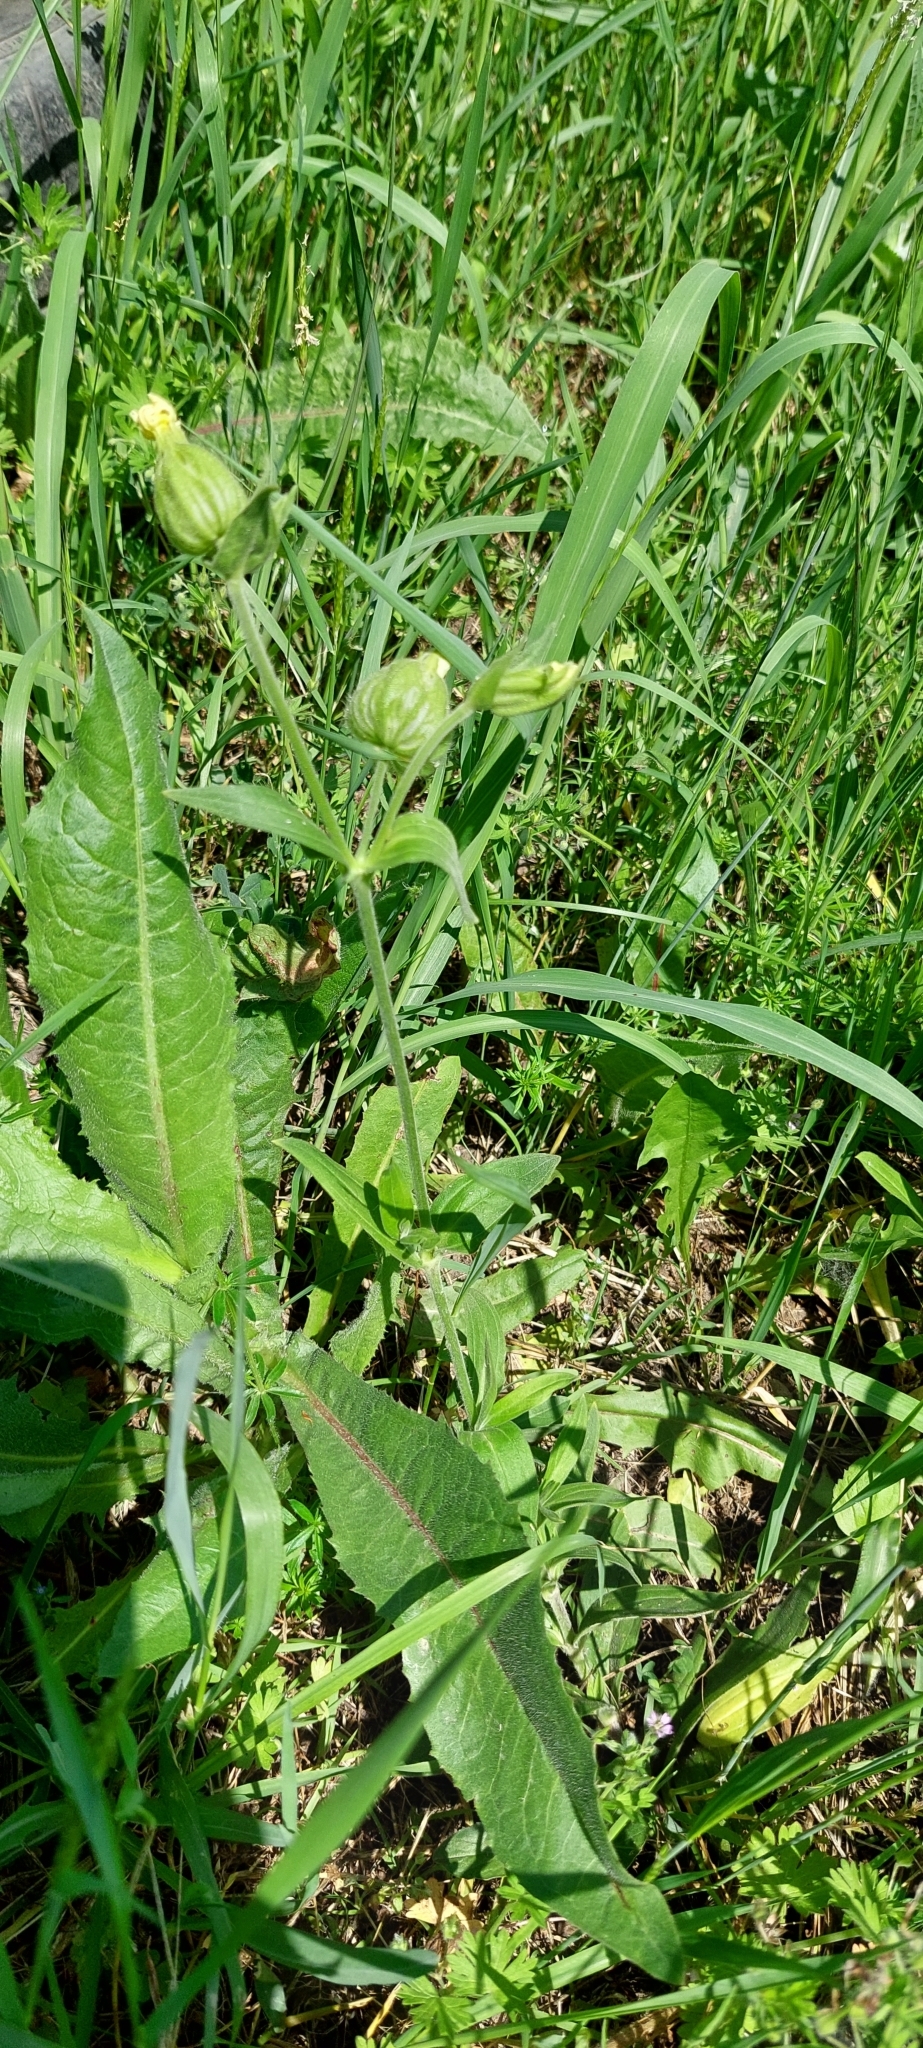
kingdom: Plantae
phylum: Tracheophyta
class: Magnoliopsida
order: Caryophyllales
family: Caryophyllaceae
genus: Silene
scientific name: Silene latifolia
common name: White campion
